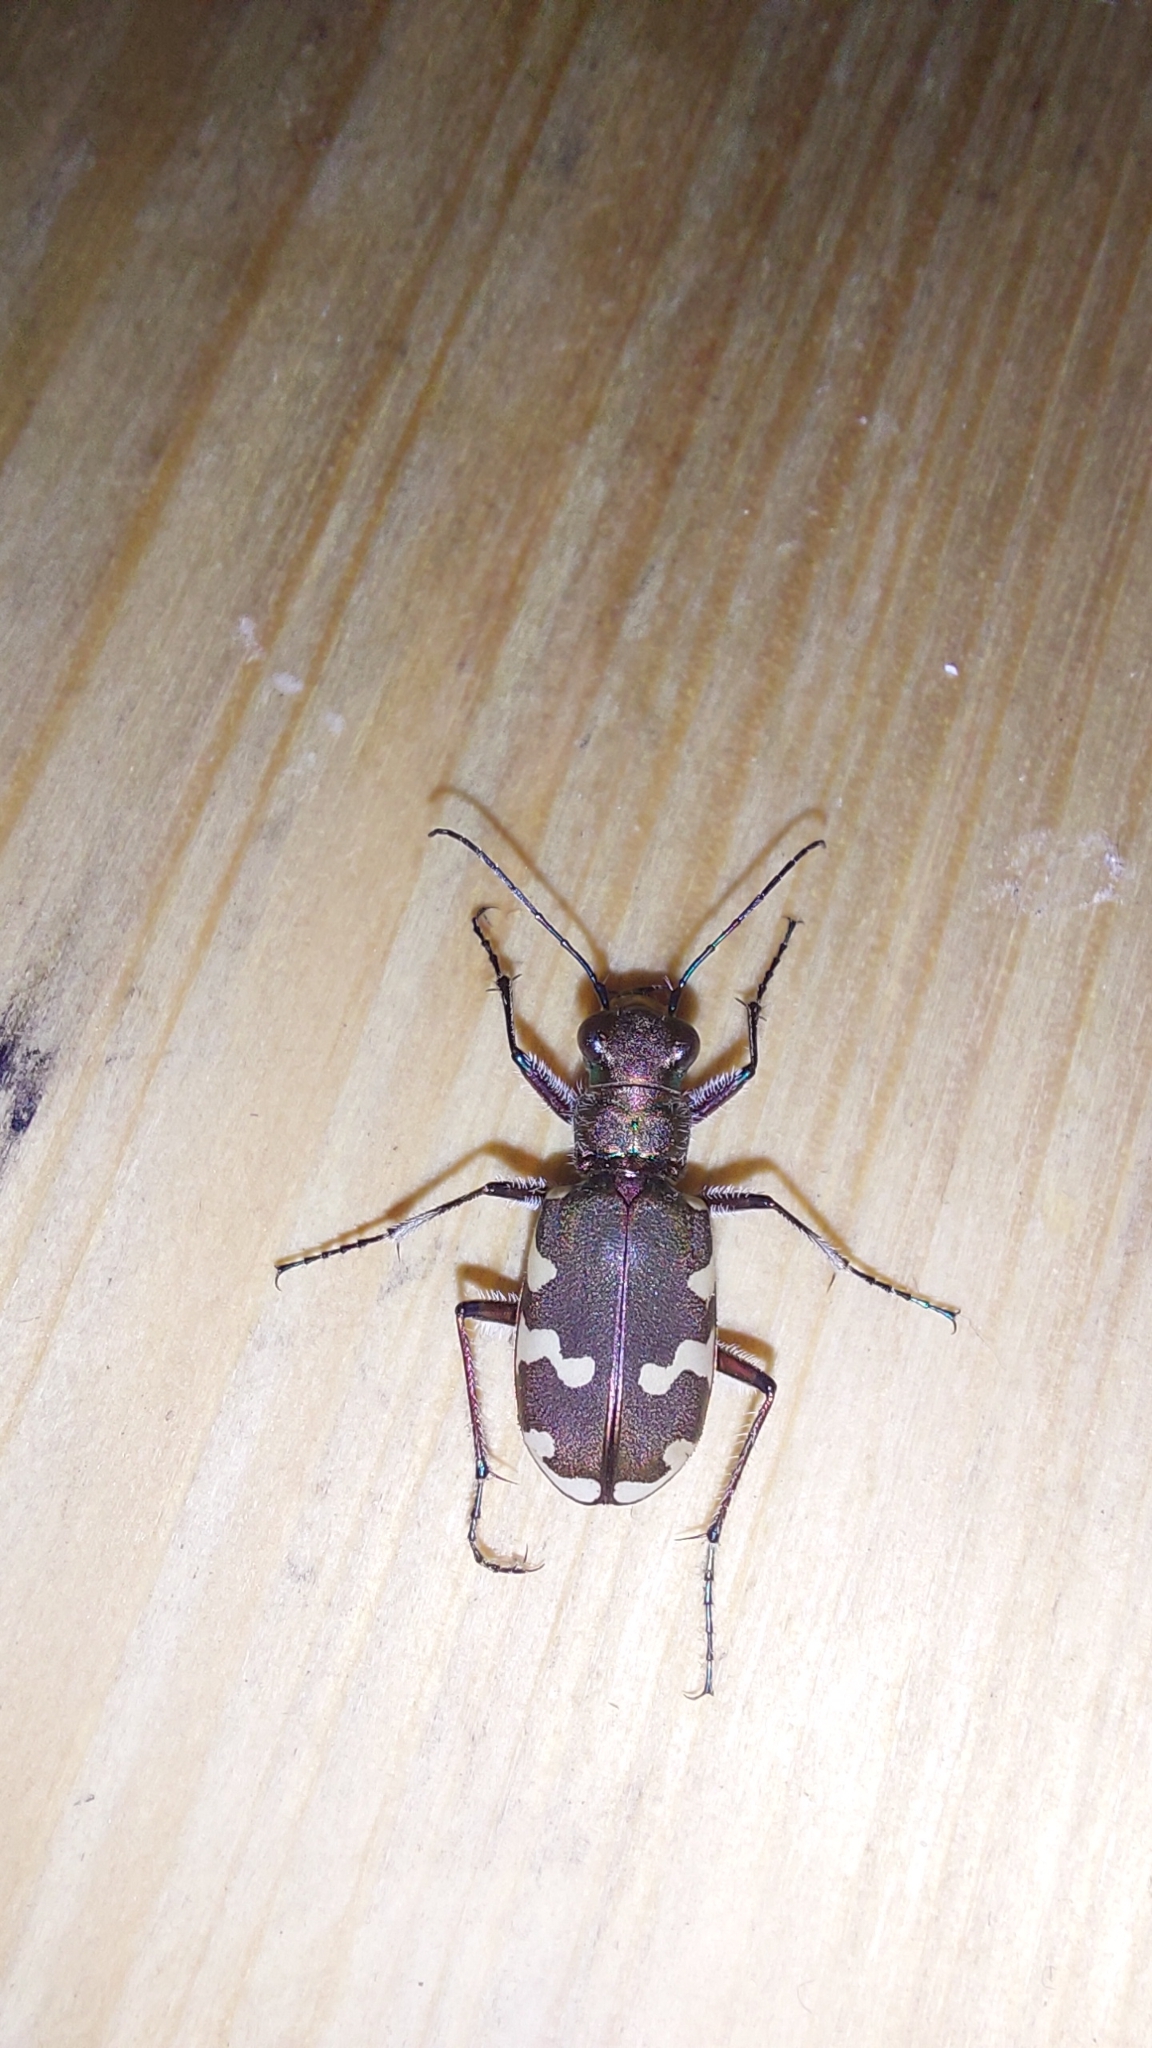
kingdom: Animalia
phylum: Arthropoda
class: Insecta
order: Coleoptera
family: Carabidae
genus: Cicindela
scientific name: Cicindela hybrida
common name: Northern dune tiger beetle
